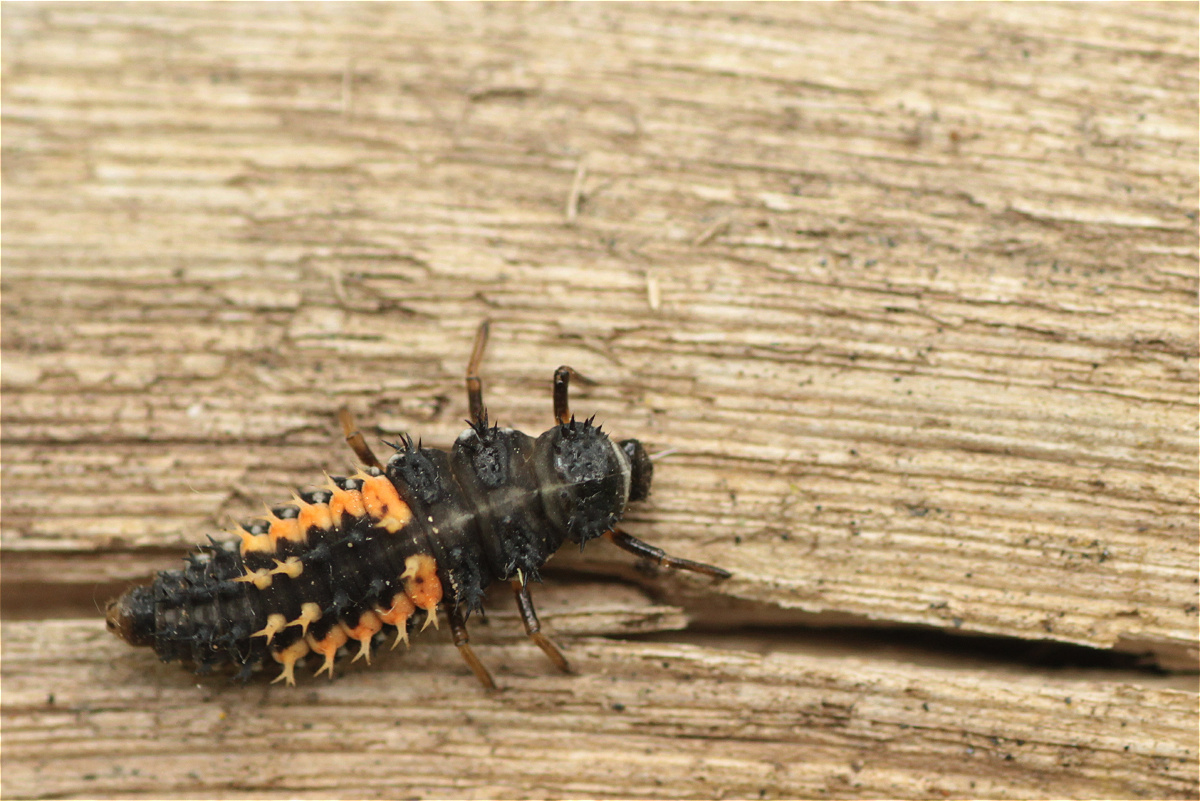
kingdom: Animalia
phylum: Arthropoda
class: Insecta
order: Coleoptera
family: Coccinellidae
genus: Harmonia
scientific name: Harmonia axyridis
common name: Harlequin ladybird
